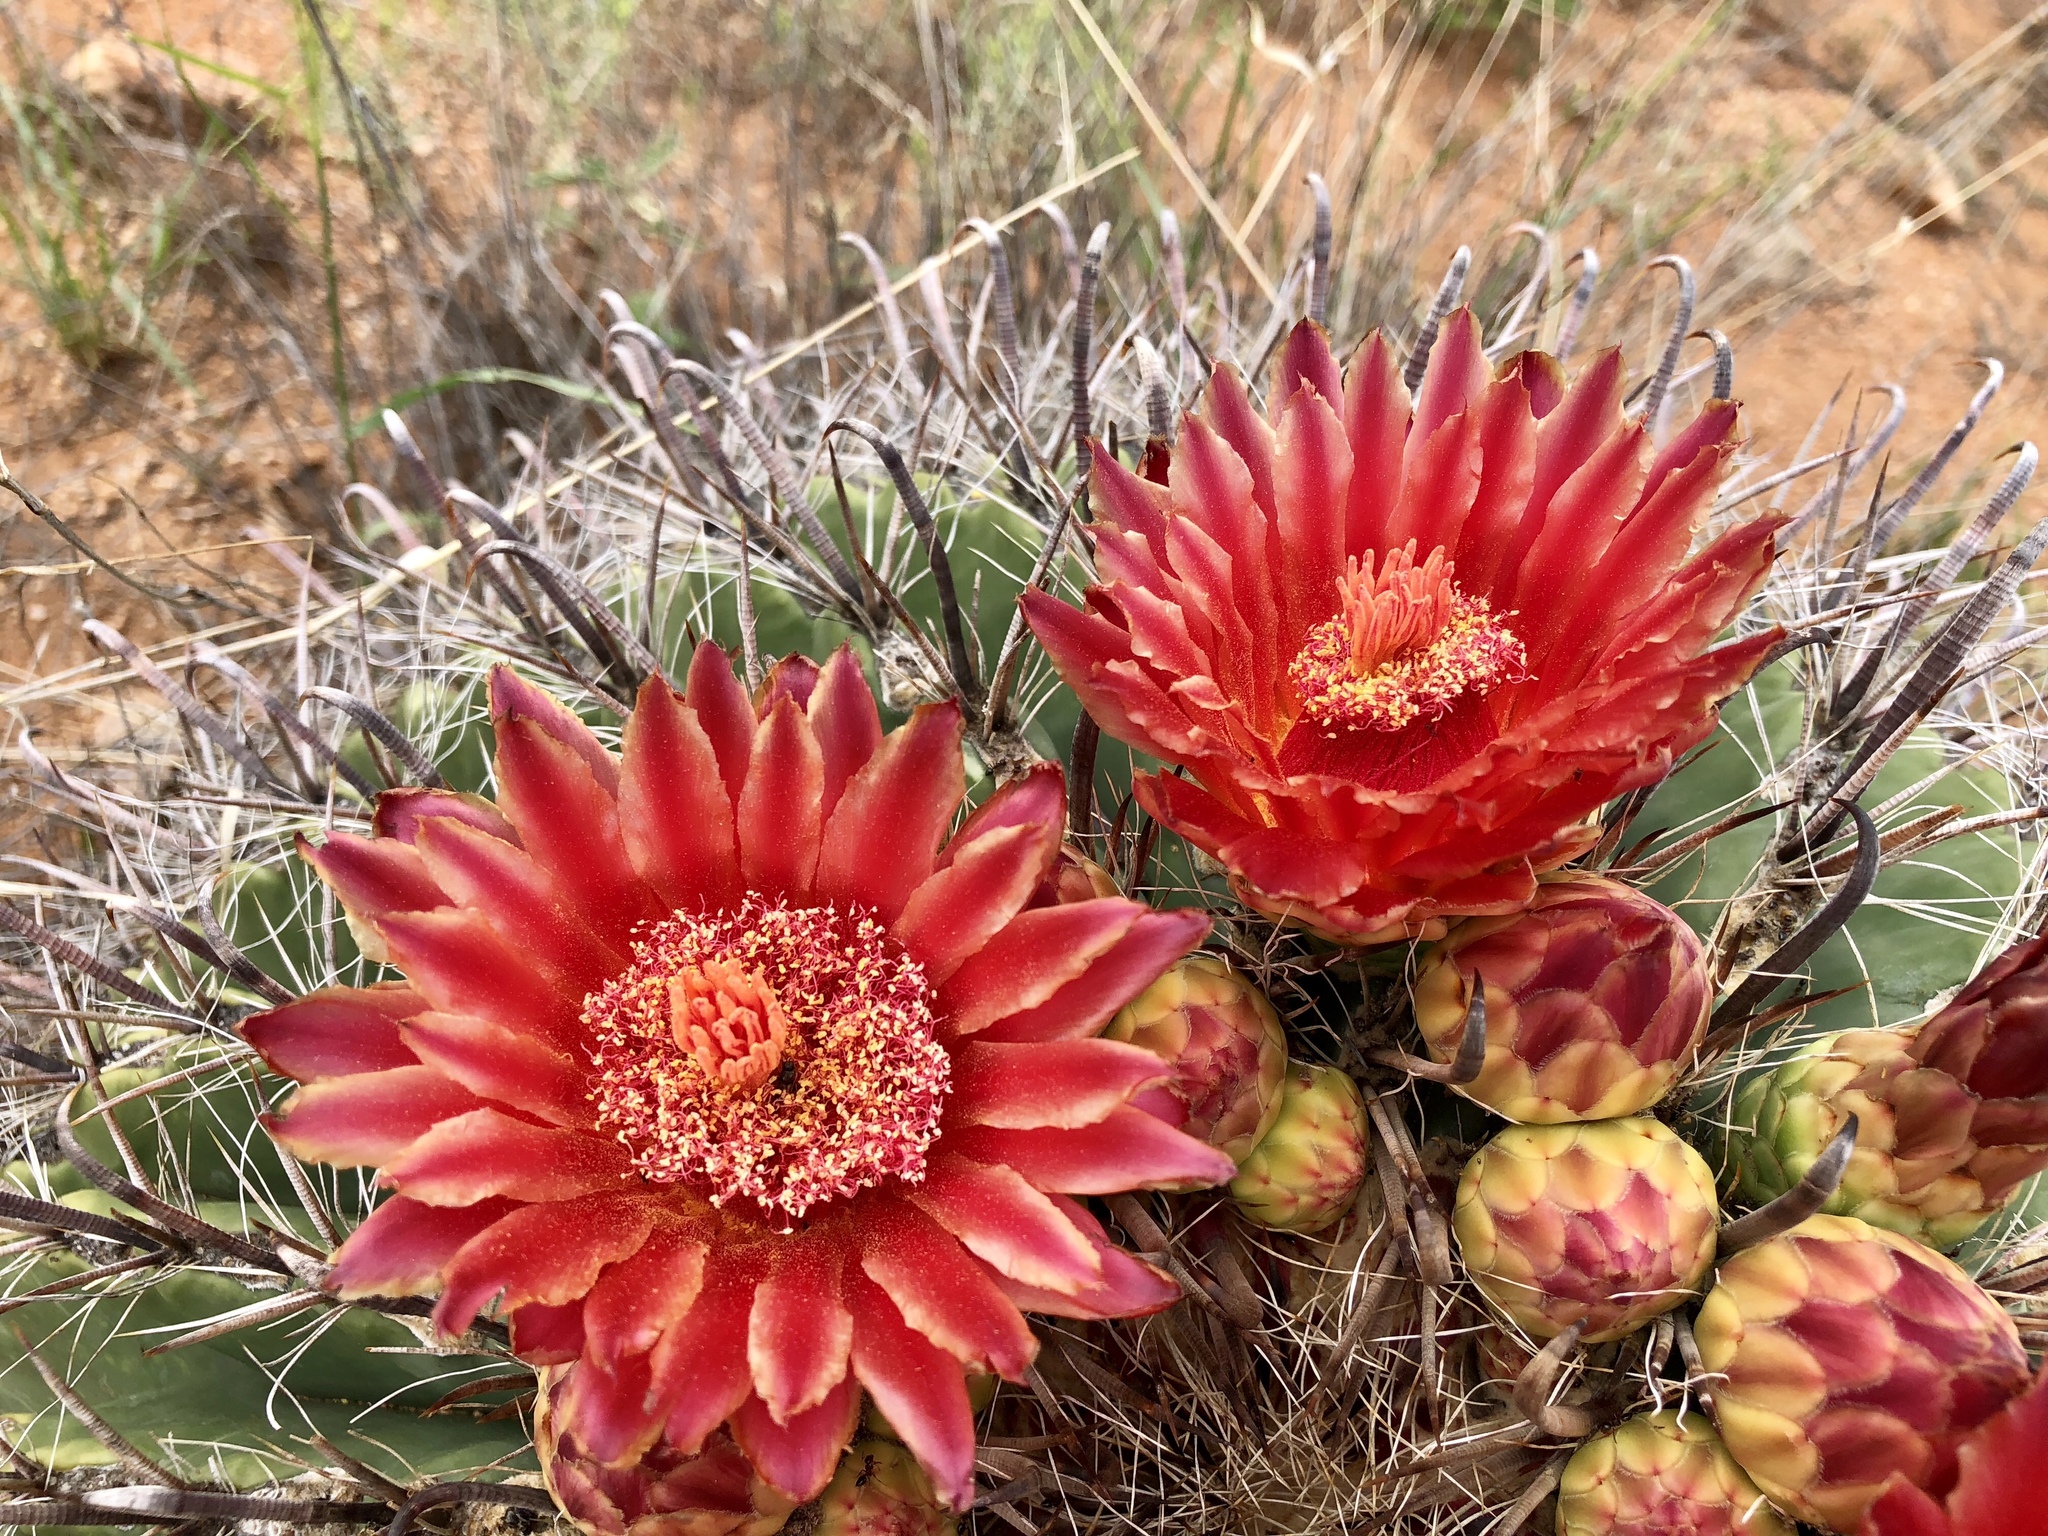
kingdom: Plantae
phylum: Tracheophyta
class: Magnoliopsida
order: Caryophyllales
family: Cactaceae
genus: Ferocactus
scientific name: Ferocactus wislizeni
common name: Candy barrel cactus
